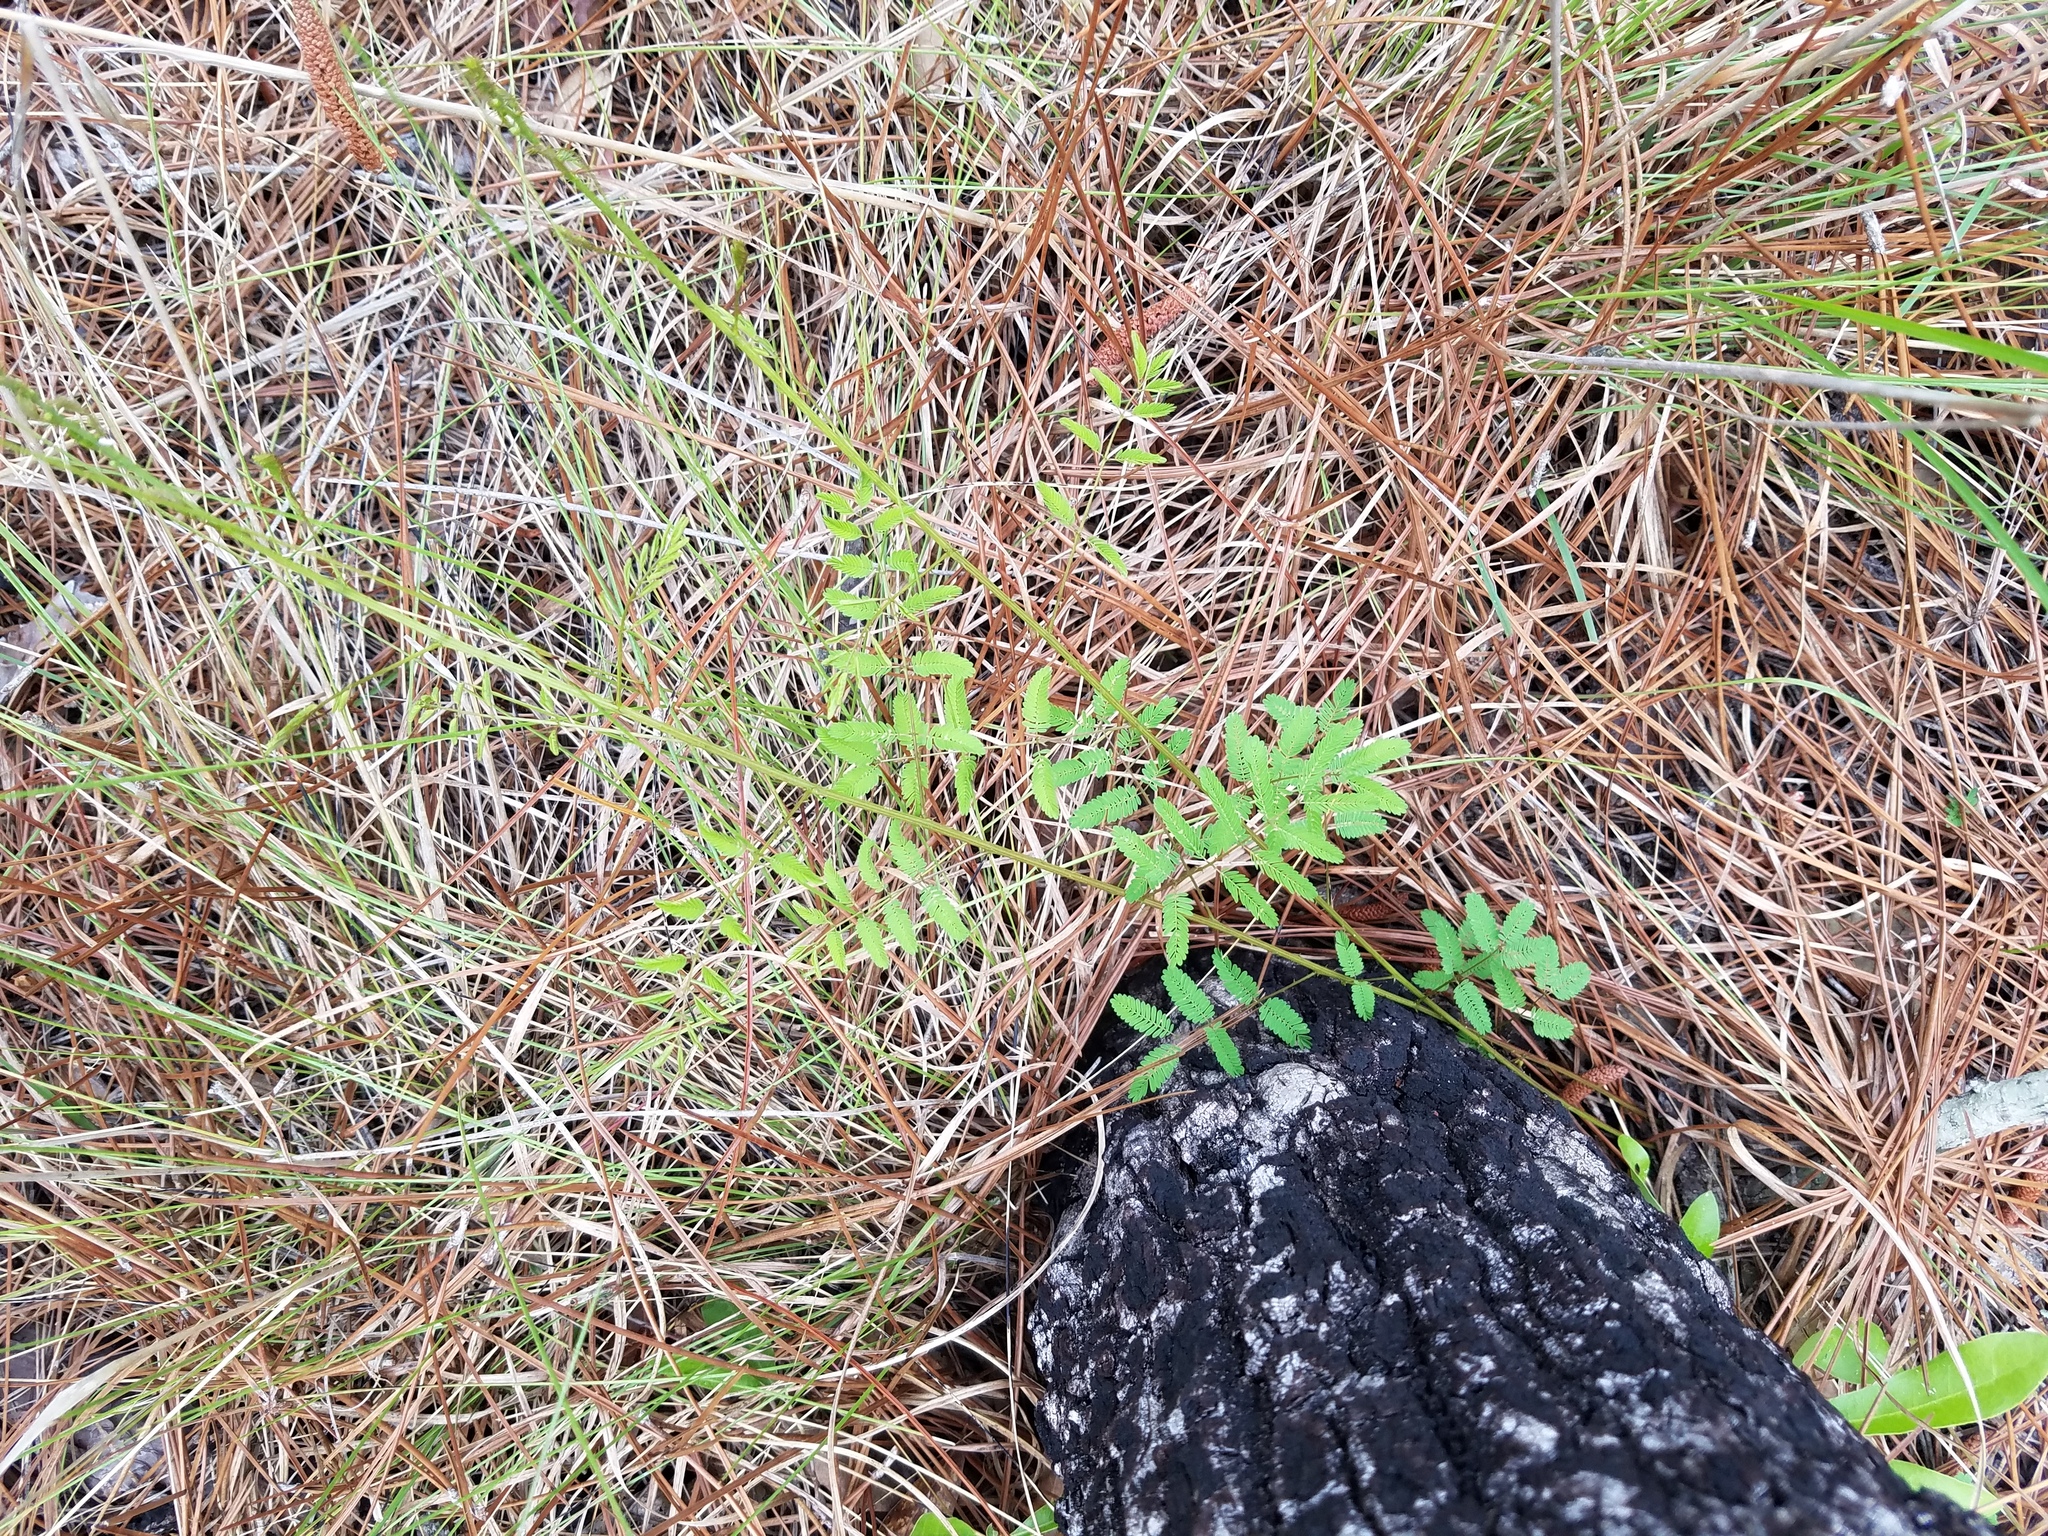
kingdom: Plantae
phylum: Tracheophyta
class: Magnoliopsida
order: Fabales
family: Fabaceae
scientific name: Fabaceae
